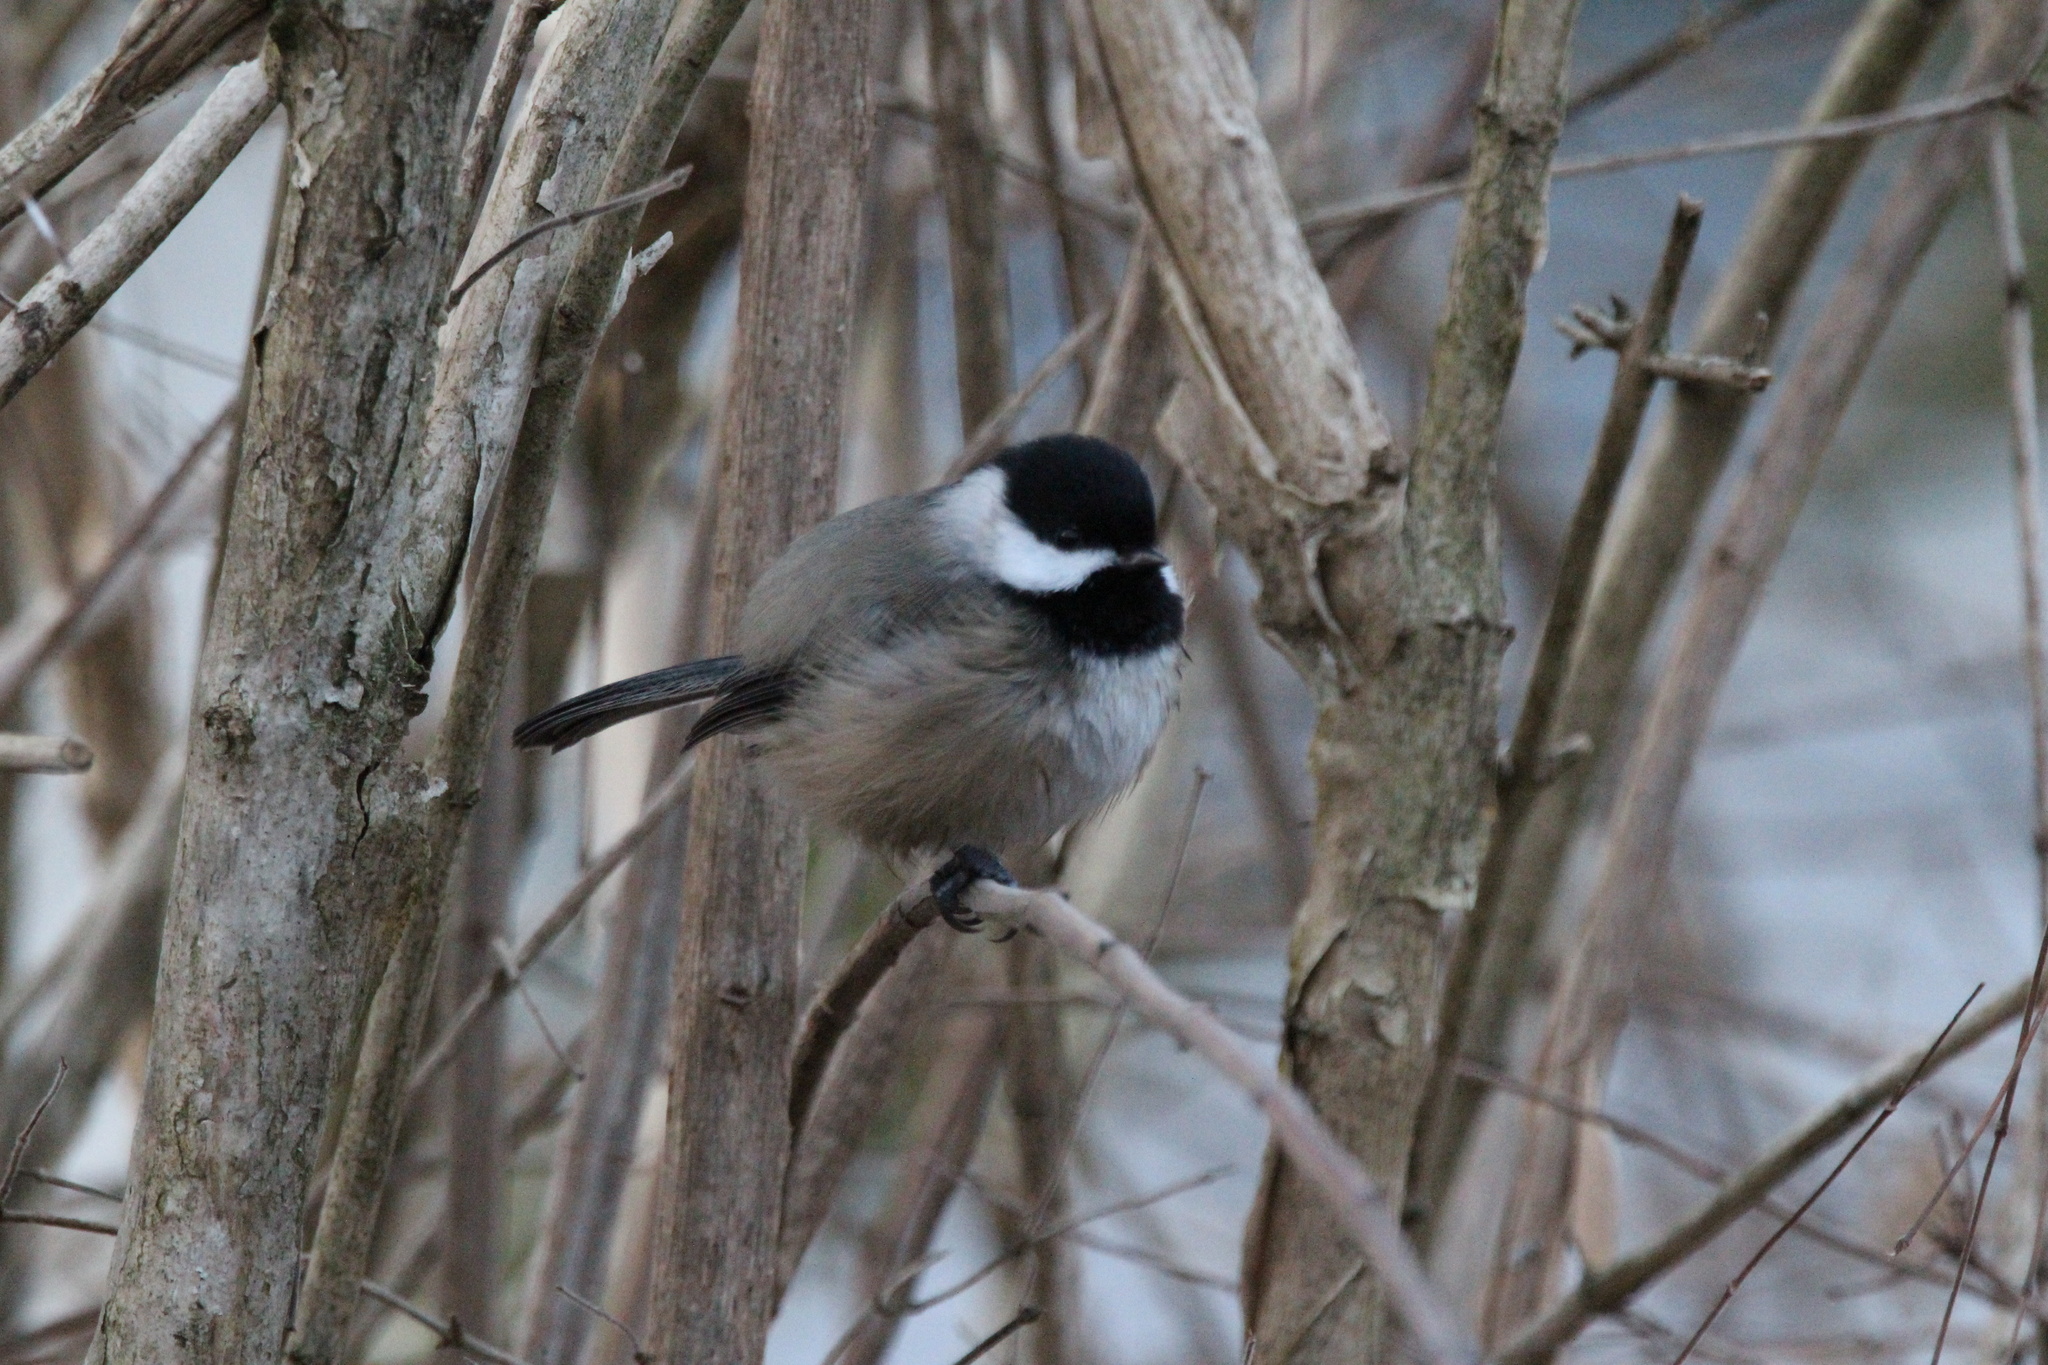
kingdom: Animalia
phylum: Chordata
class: Aves
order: Passeriformes
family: Paridae
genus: Poecile
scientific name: Poecile atricapillus
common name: Black-capped chickadee
